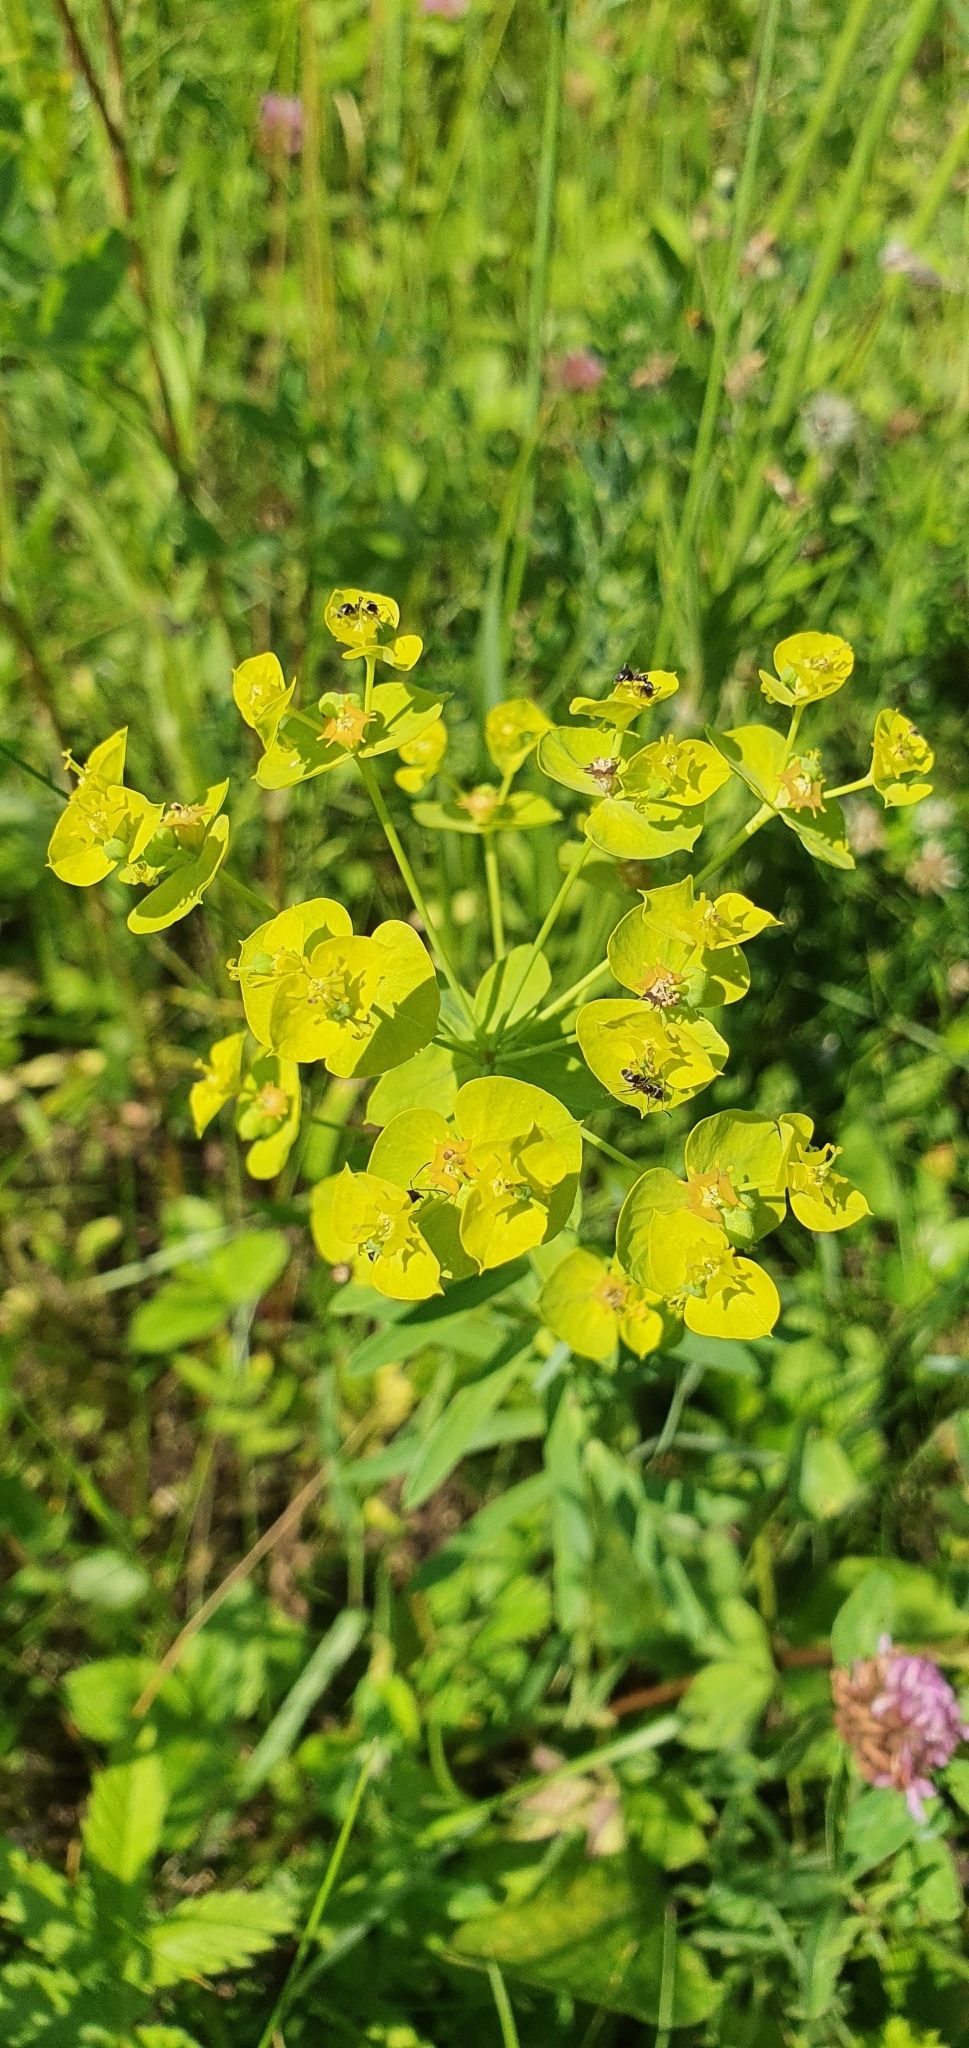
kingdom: Plantae
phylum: Tracheophyta
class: Magnoliopsida
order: Malpighiales
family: Euphorbiaceae
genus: Euphorbia
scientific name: Euphorbia virgata
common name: Leafy spurge
